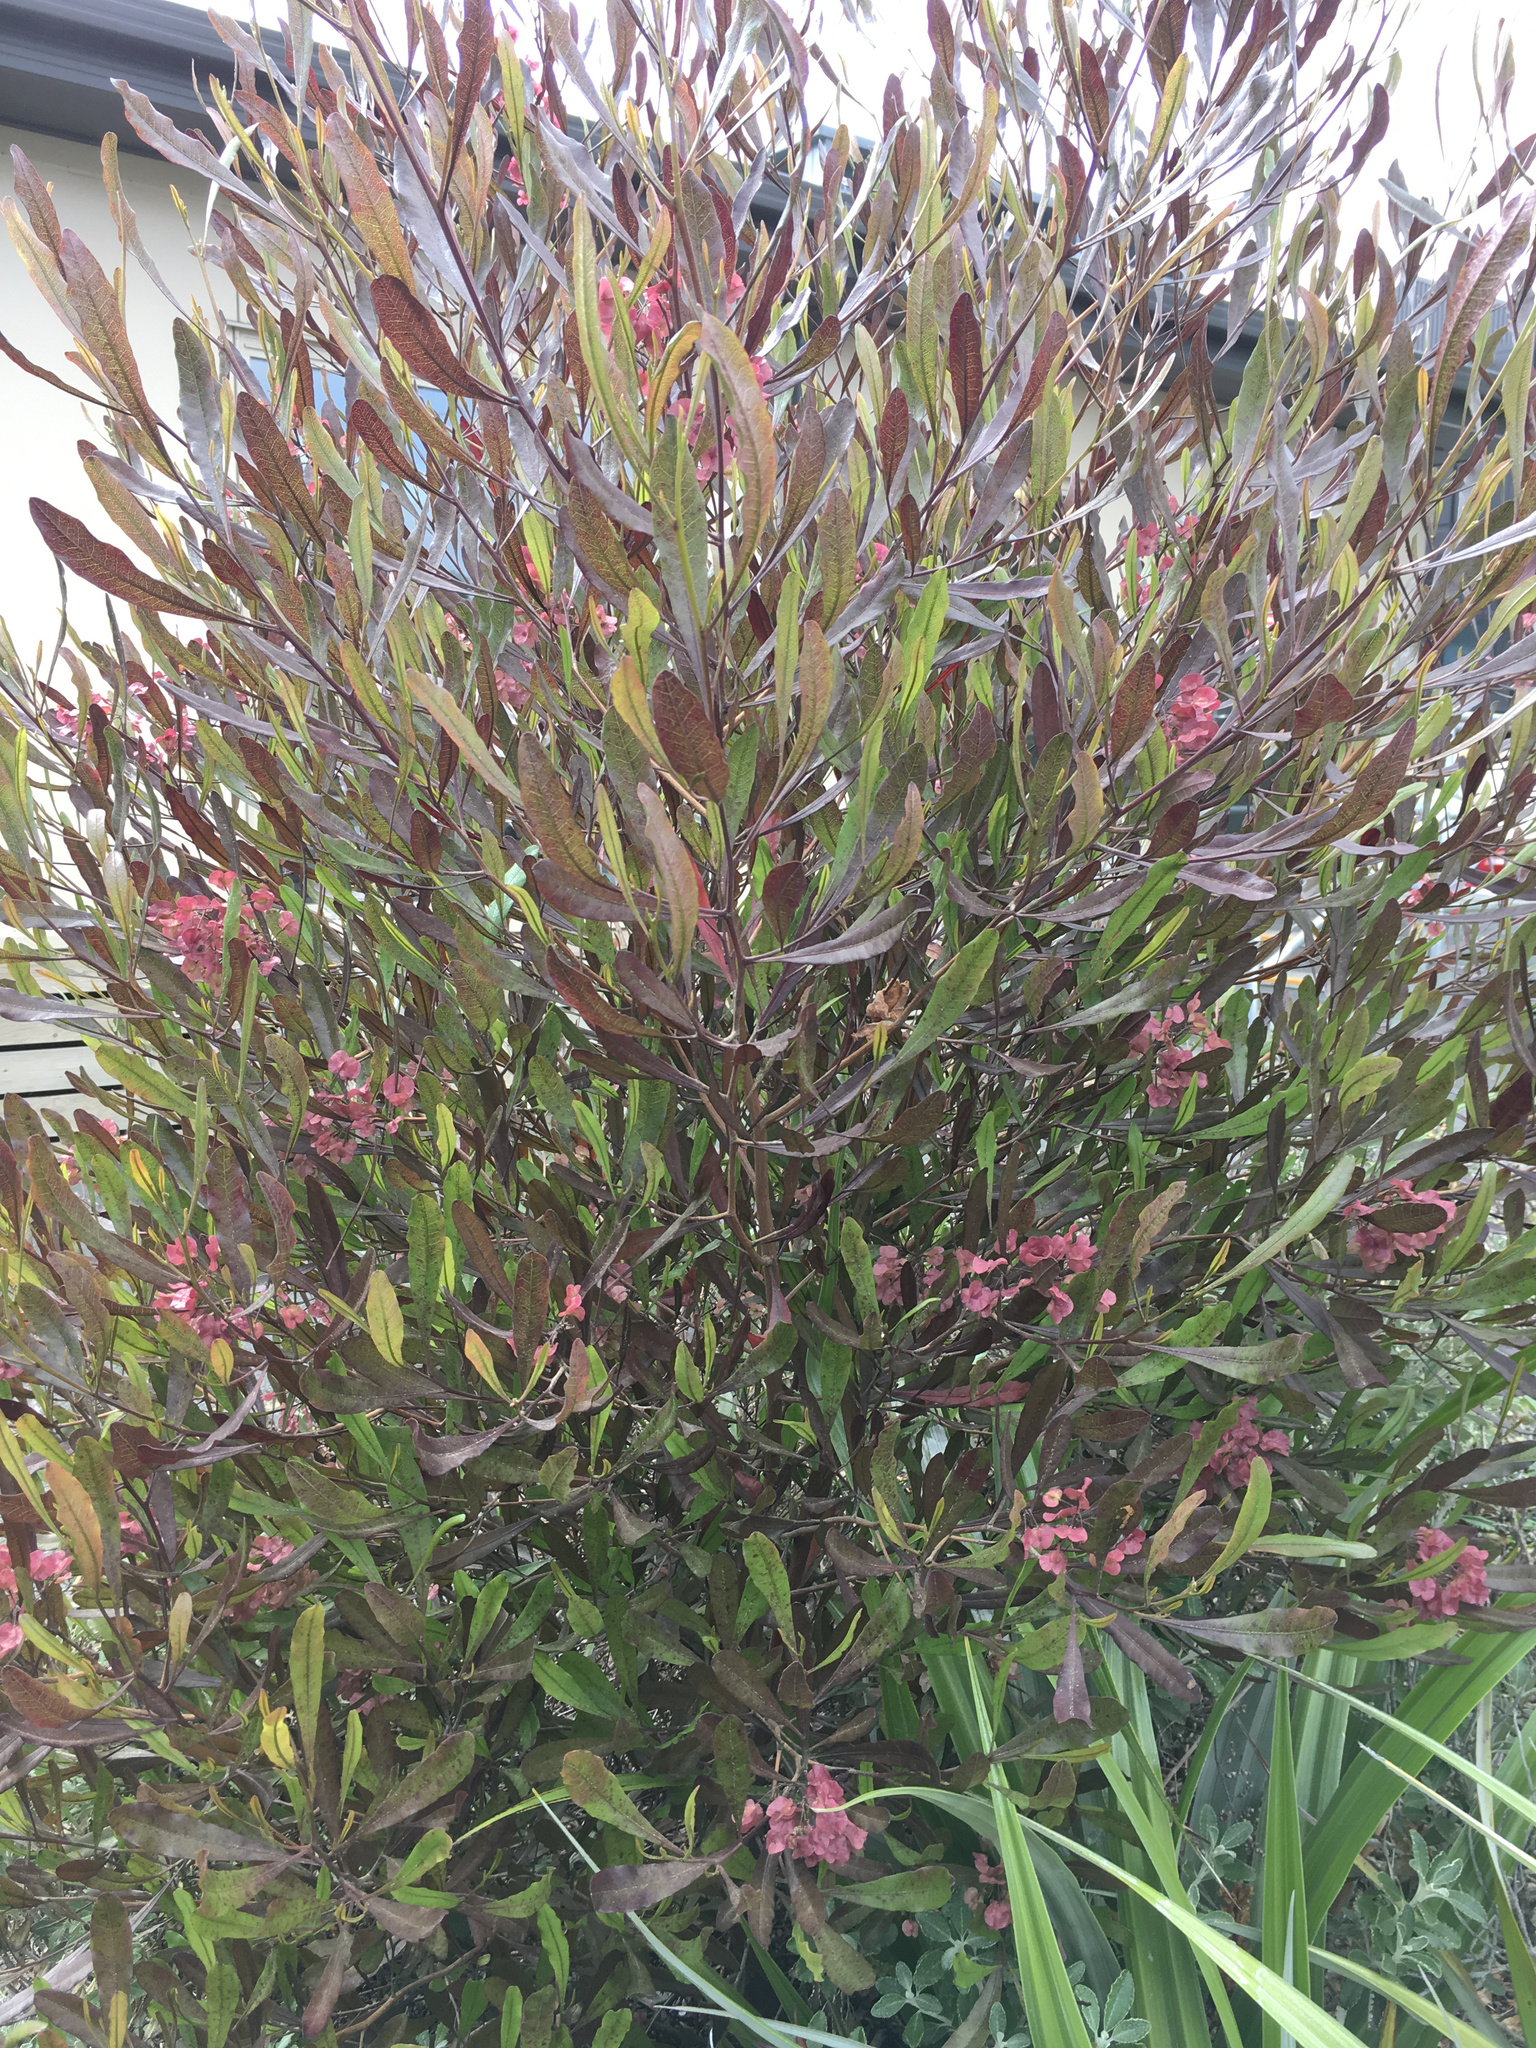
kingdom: Plantae
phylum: Tracheophyta
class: Magnoliopsida
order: Sapindales
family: Sapindaceae
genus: Dodonaea
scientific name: Dodonaea viscosa
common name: Hopbush
